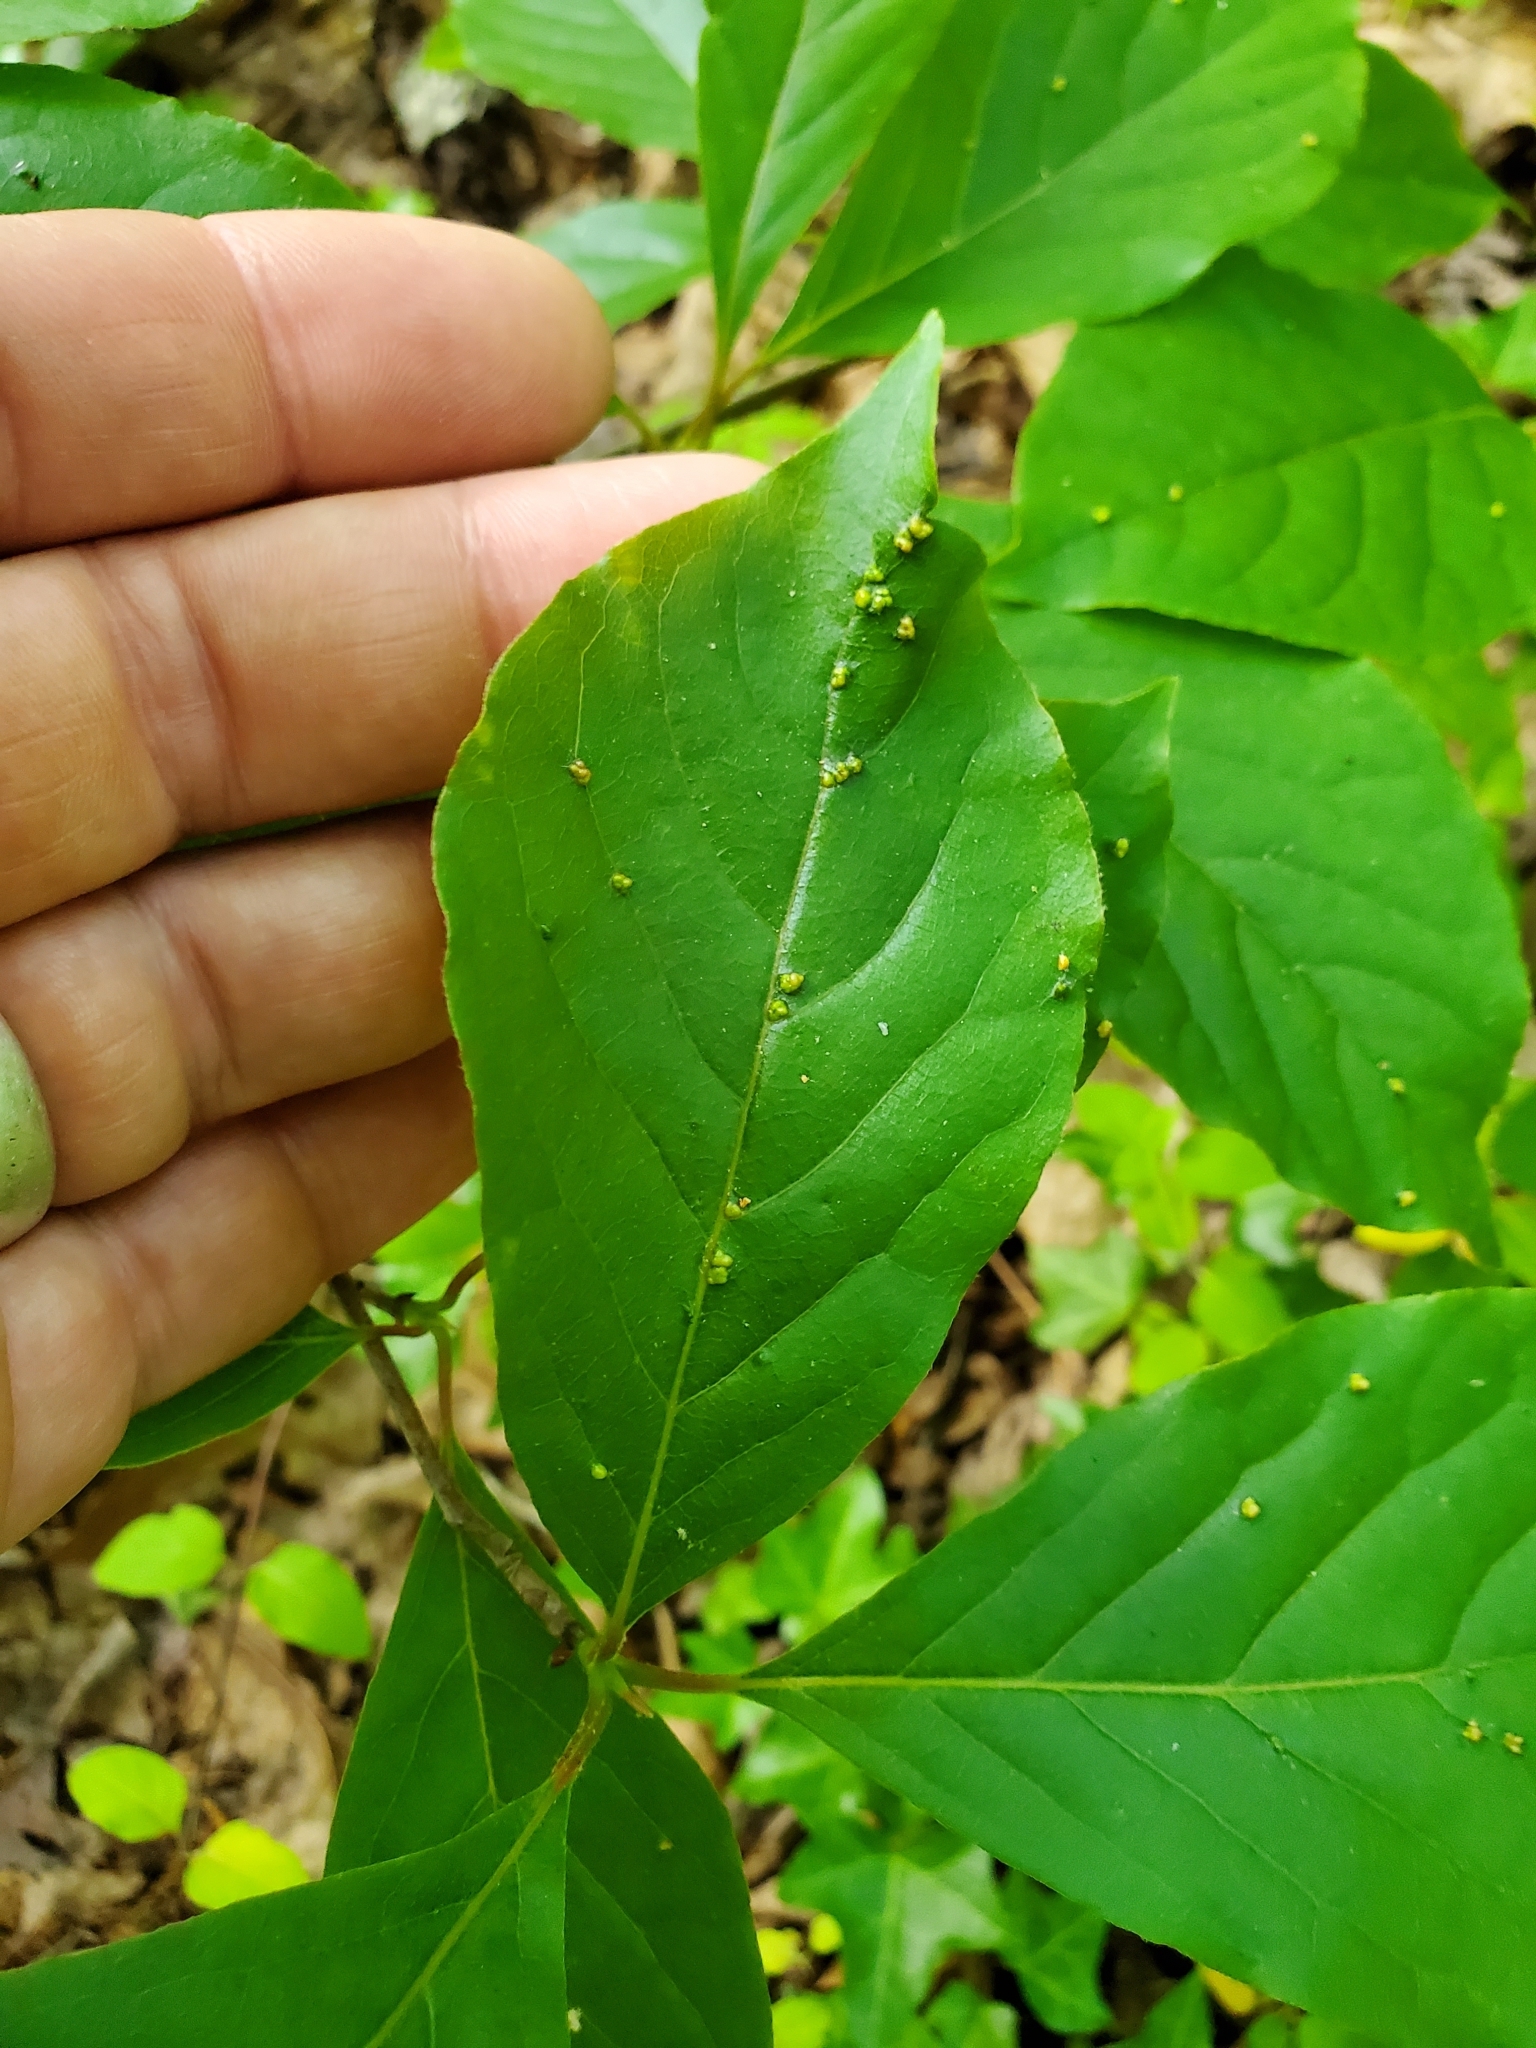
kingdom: Animalia
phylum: Arthropoda
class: Arachnida
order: Trombidiformes
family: Eriophyidae
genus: Aceria
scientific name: Aceria
